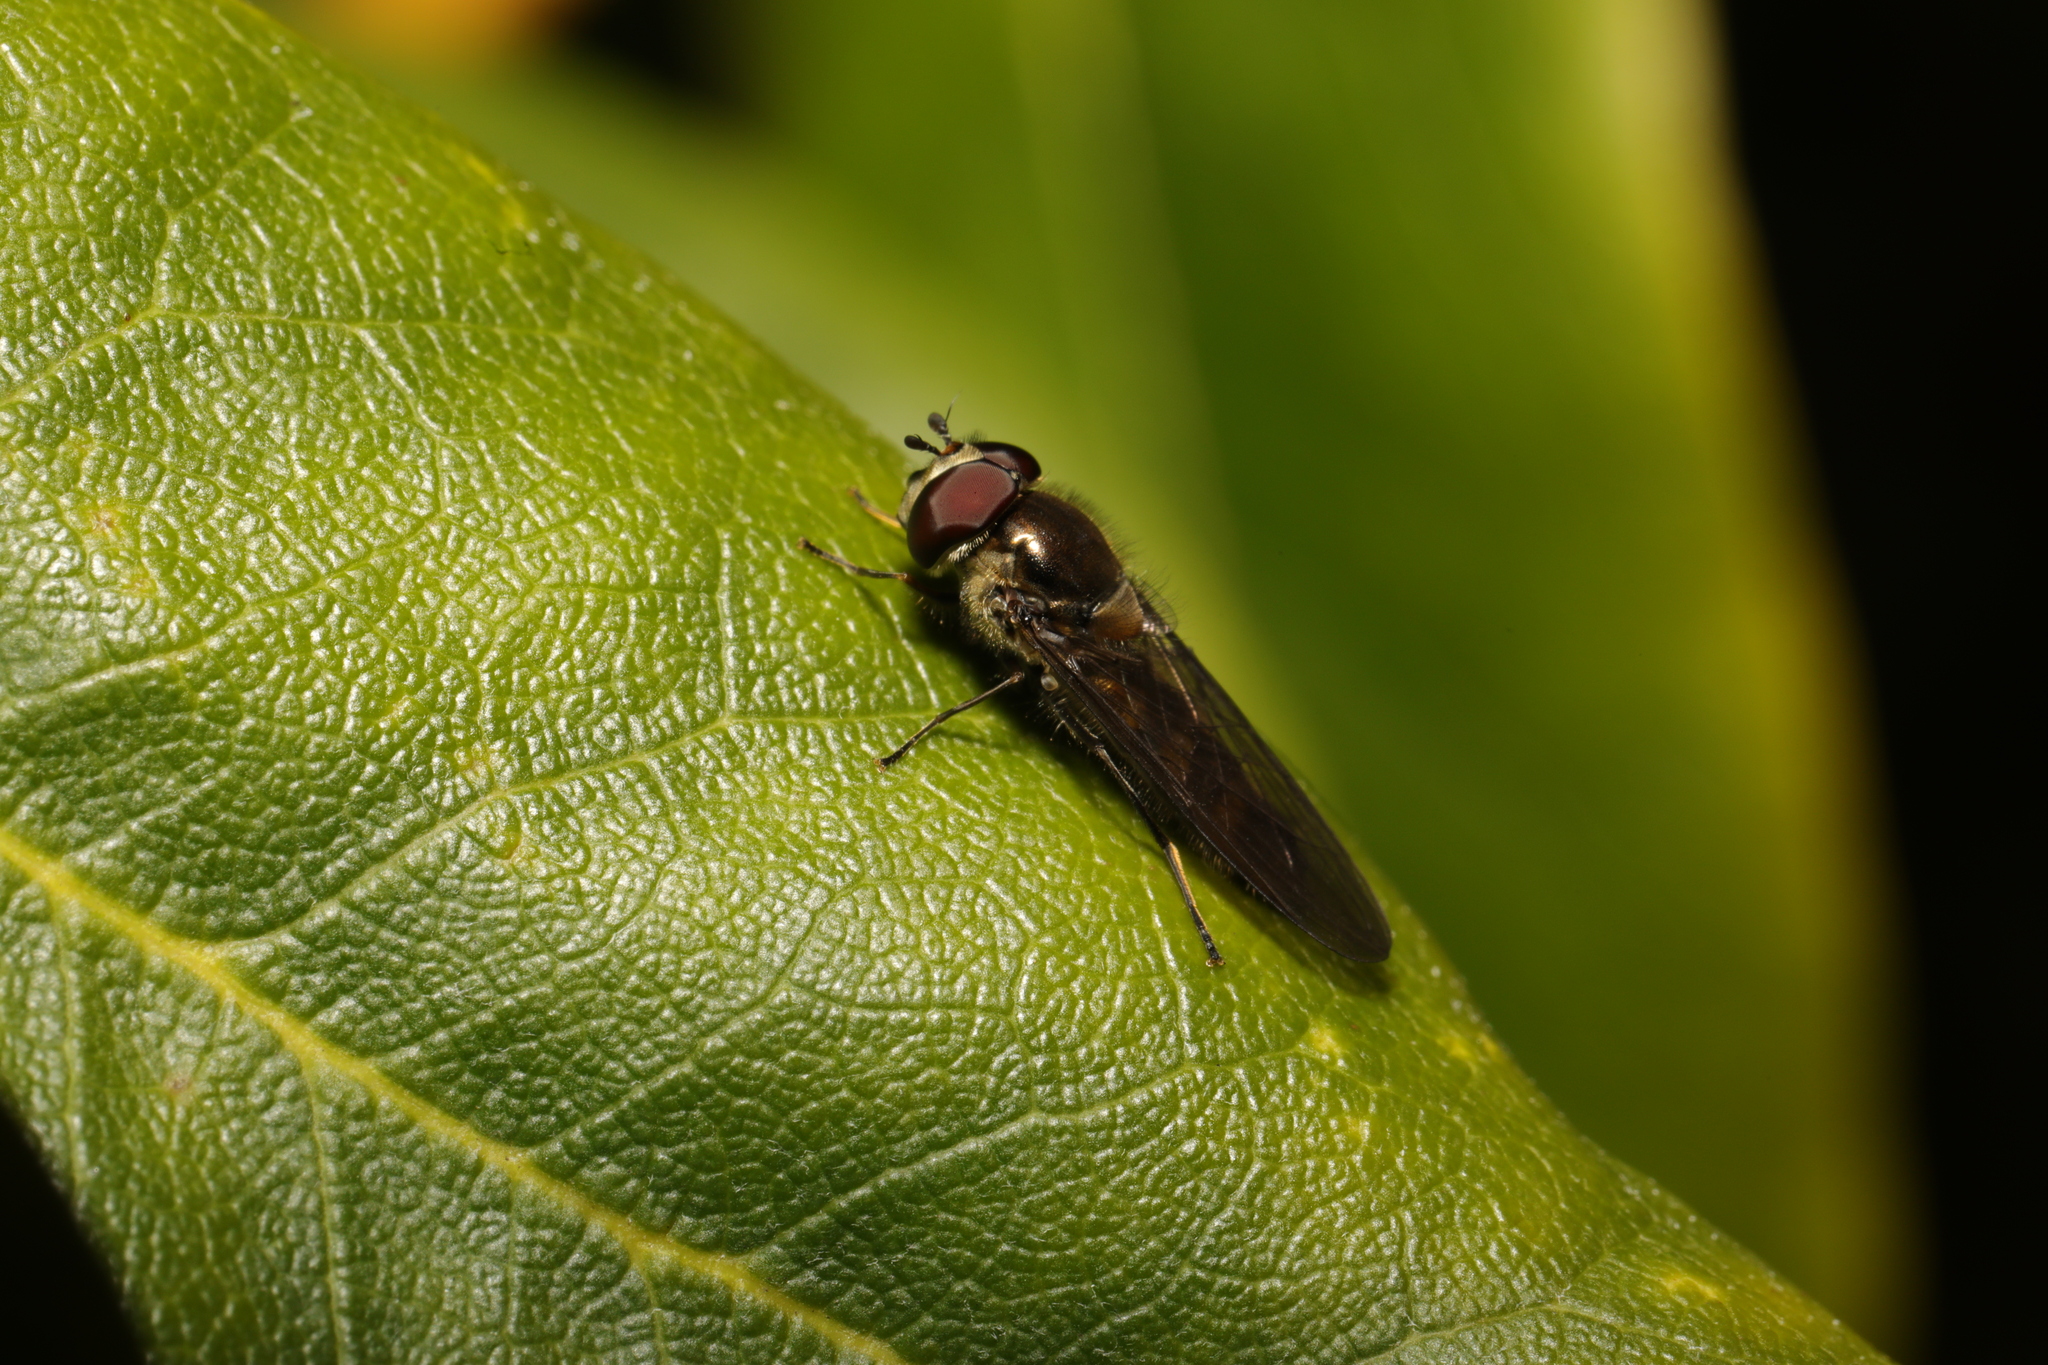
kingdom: Animalia
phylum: Arthropoda
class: Insecta
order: Diptera
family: Syrphidae
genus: Meliscaeva
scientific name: Meliscaeva auricollis
